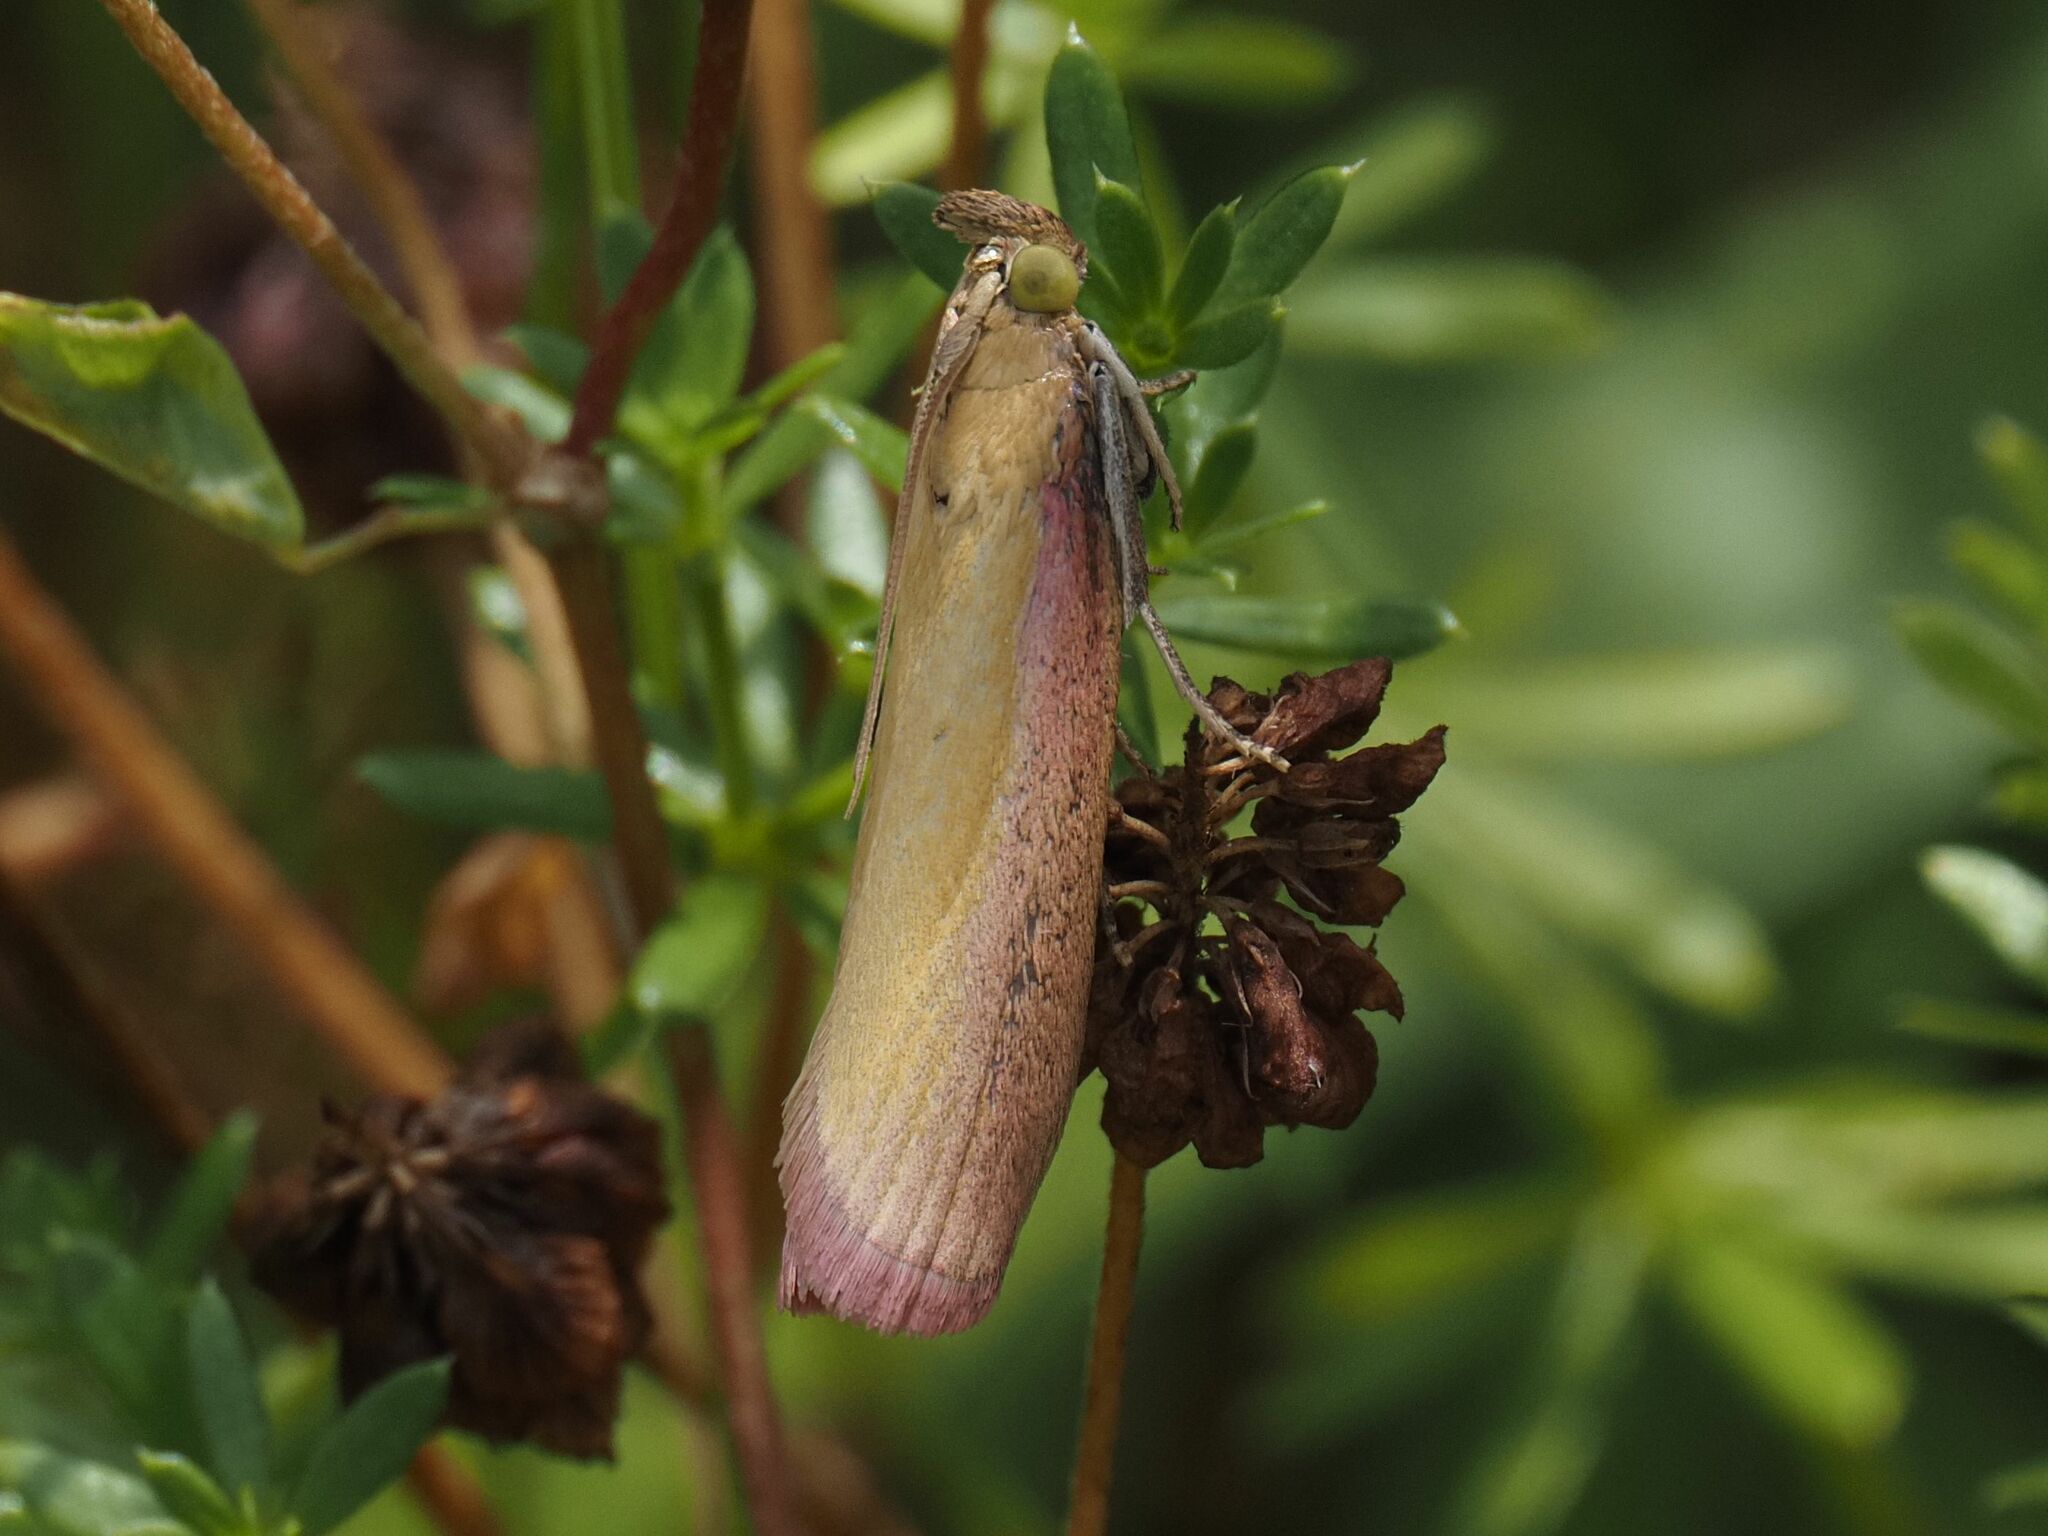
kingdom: Animalia
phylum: Arthropoda
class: Insecta
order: Lepidoptera
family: Pyralidae
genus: Oncocera
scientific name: Oncocera semirubella
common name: Rosy-striped knot-horn
